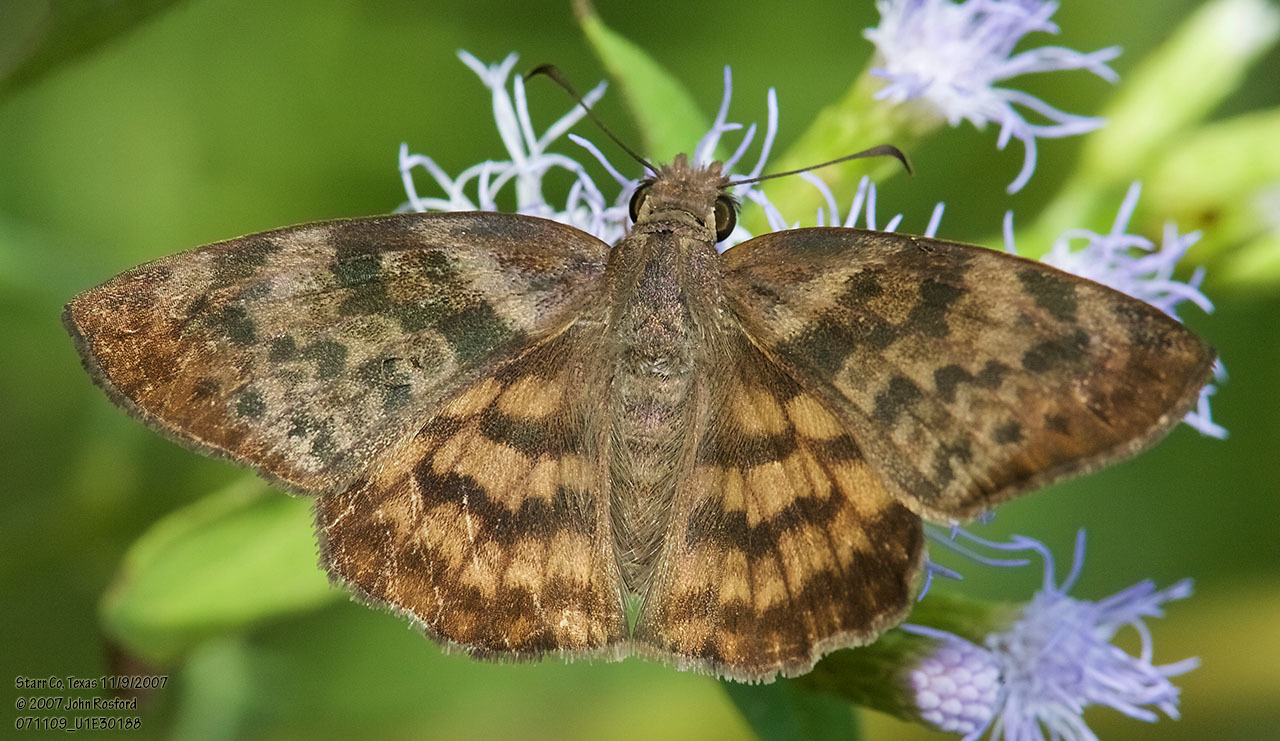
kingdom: Animalia
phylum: Arthropoda
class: Insecta
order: Lepidoptera
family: Hesperiidae
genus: Timochares
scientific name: Timochares ruptifasciata
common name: Brown-banded skipper
